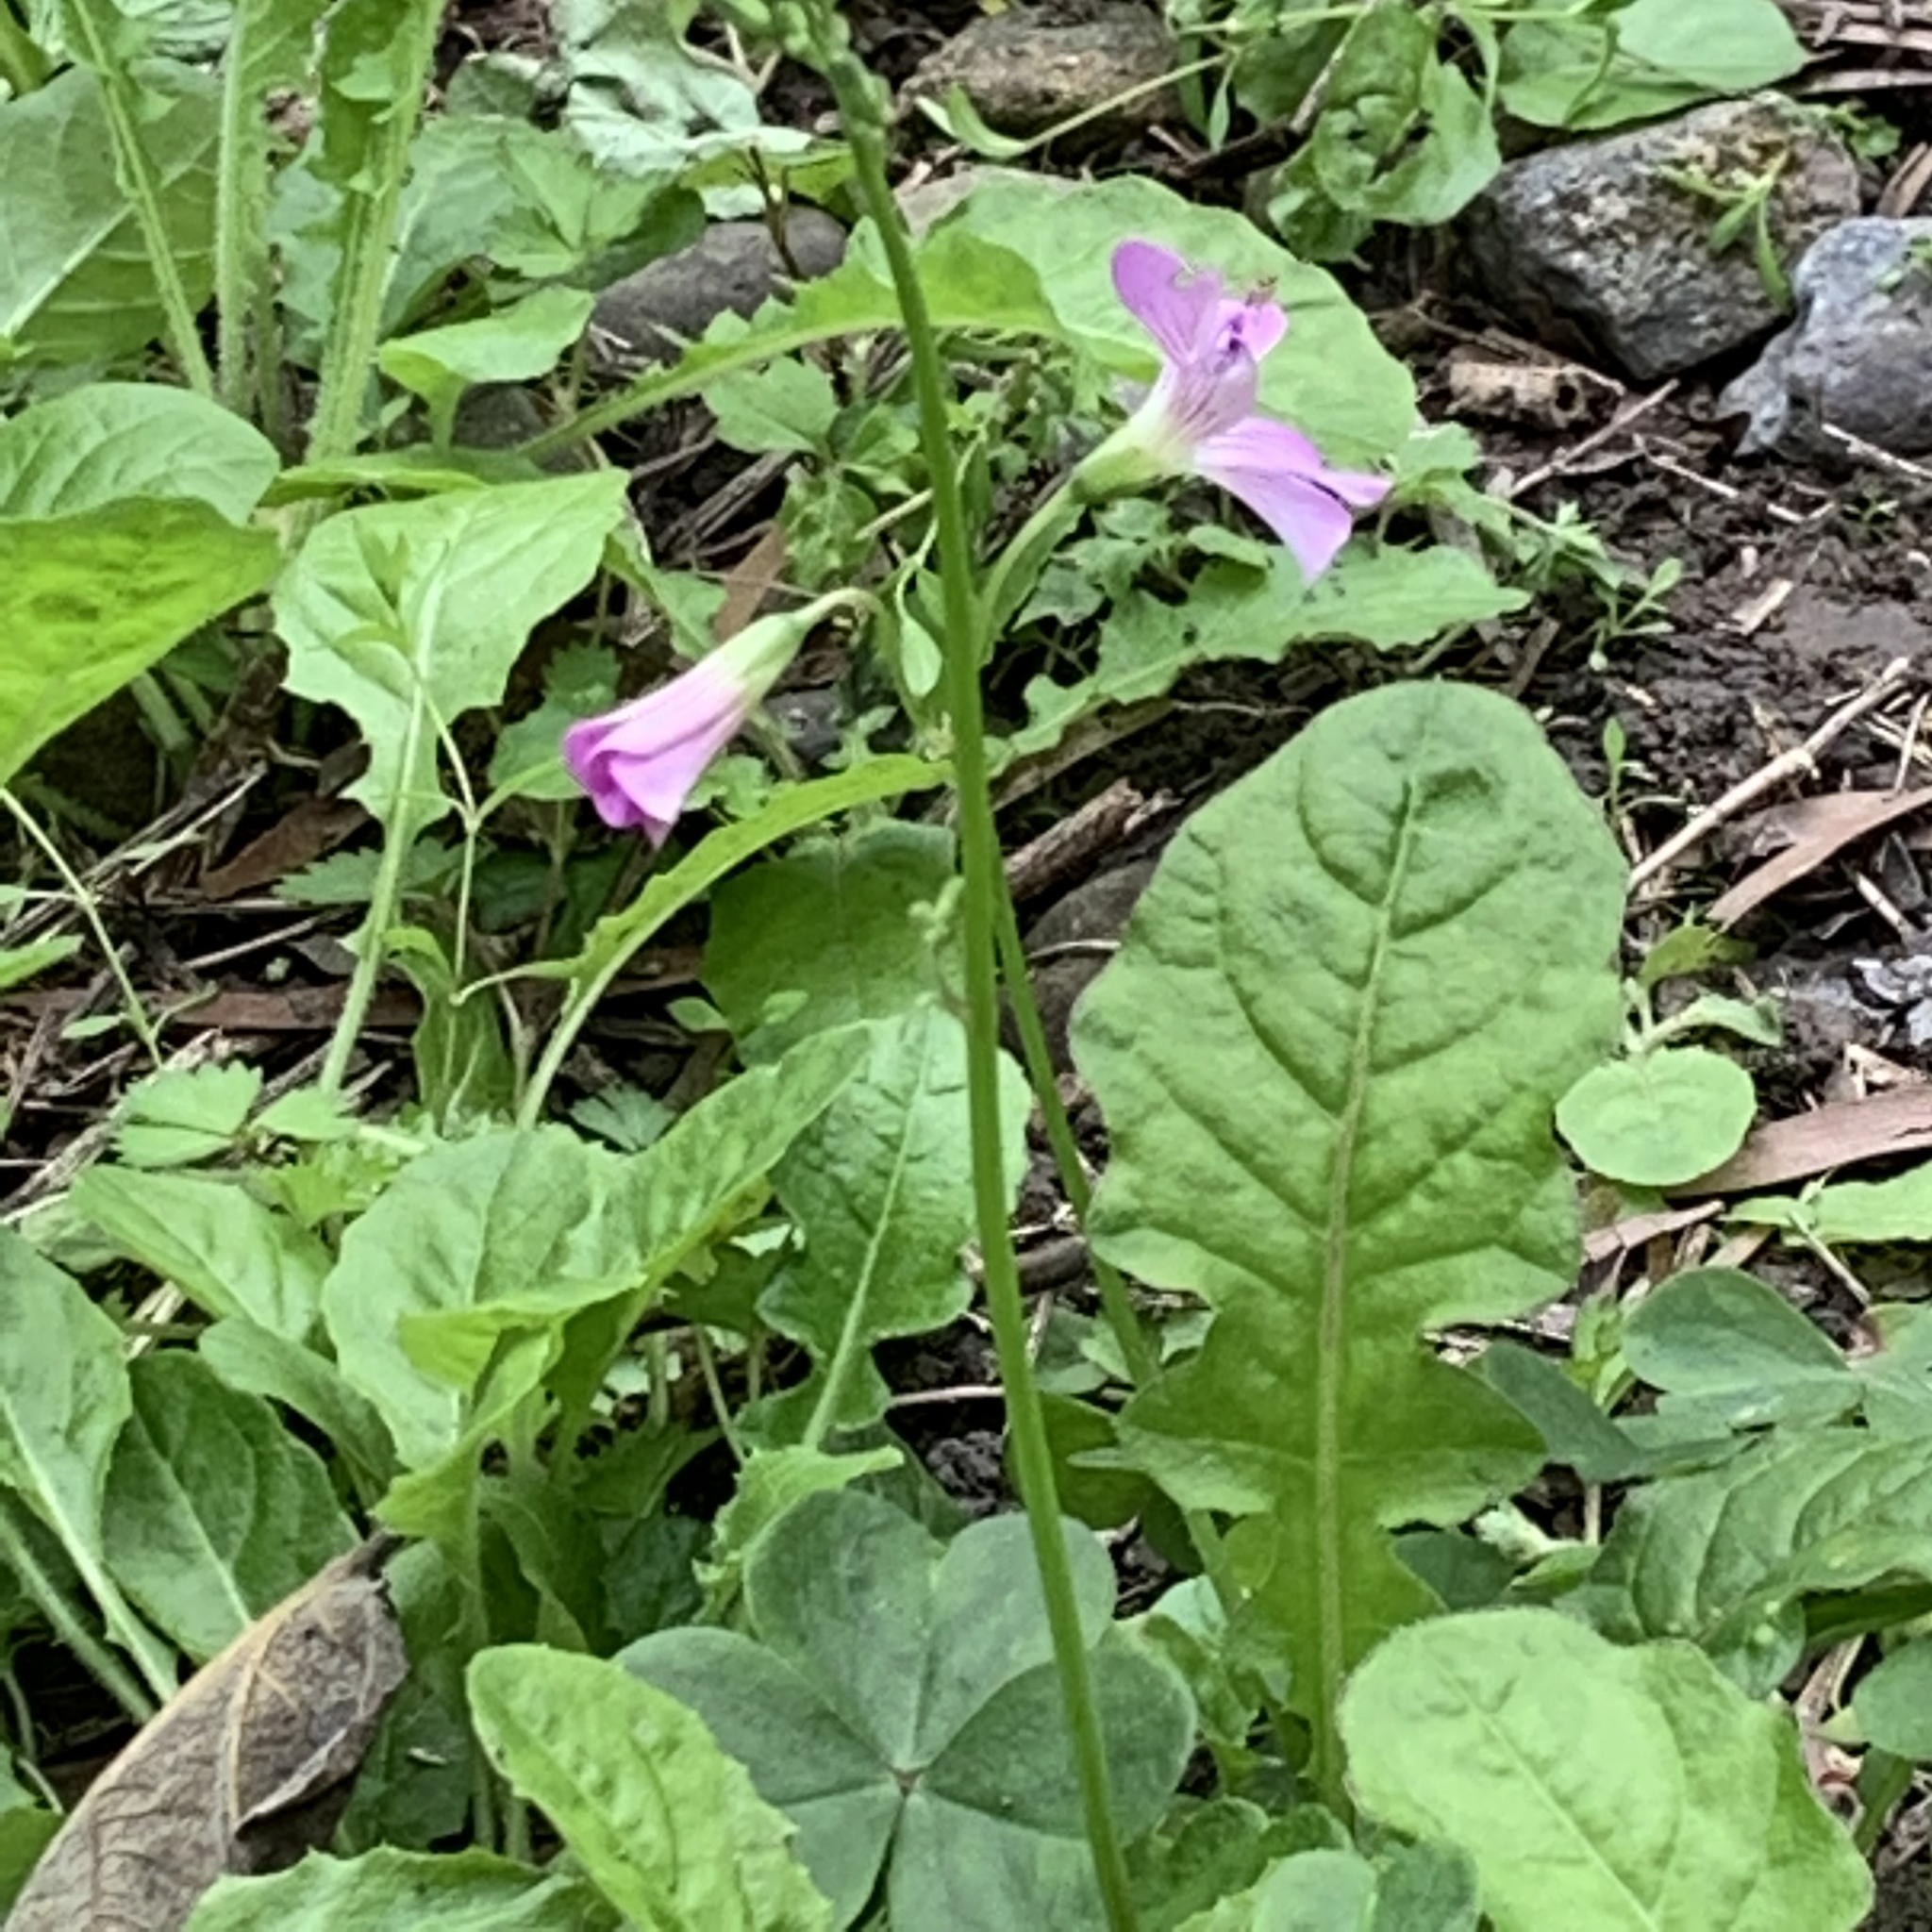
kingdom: Plantae
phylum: Tracheophyta
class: Magnoliopsida
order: Oxalidales
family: Oxalidaceae
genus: Oxalis
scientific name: Oxalis debilis
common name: Large-flowered pink-sorrel
